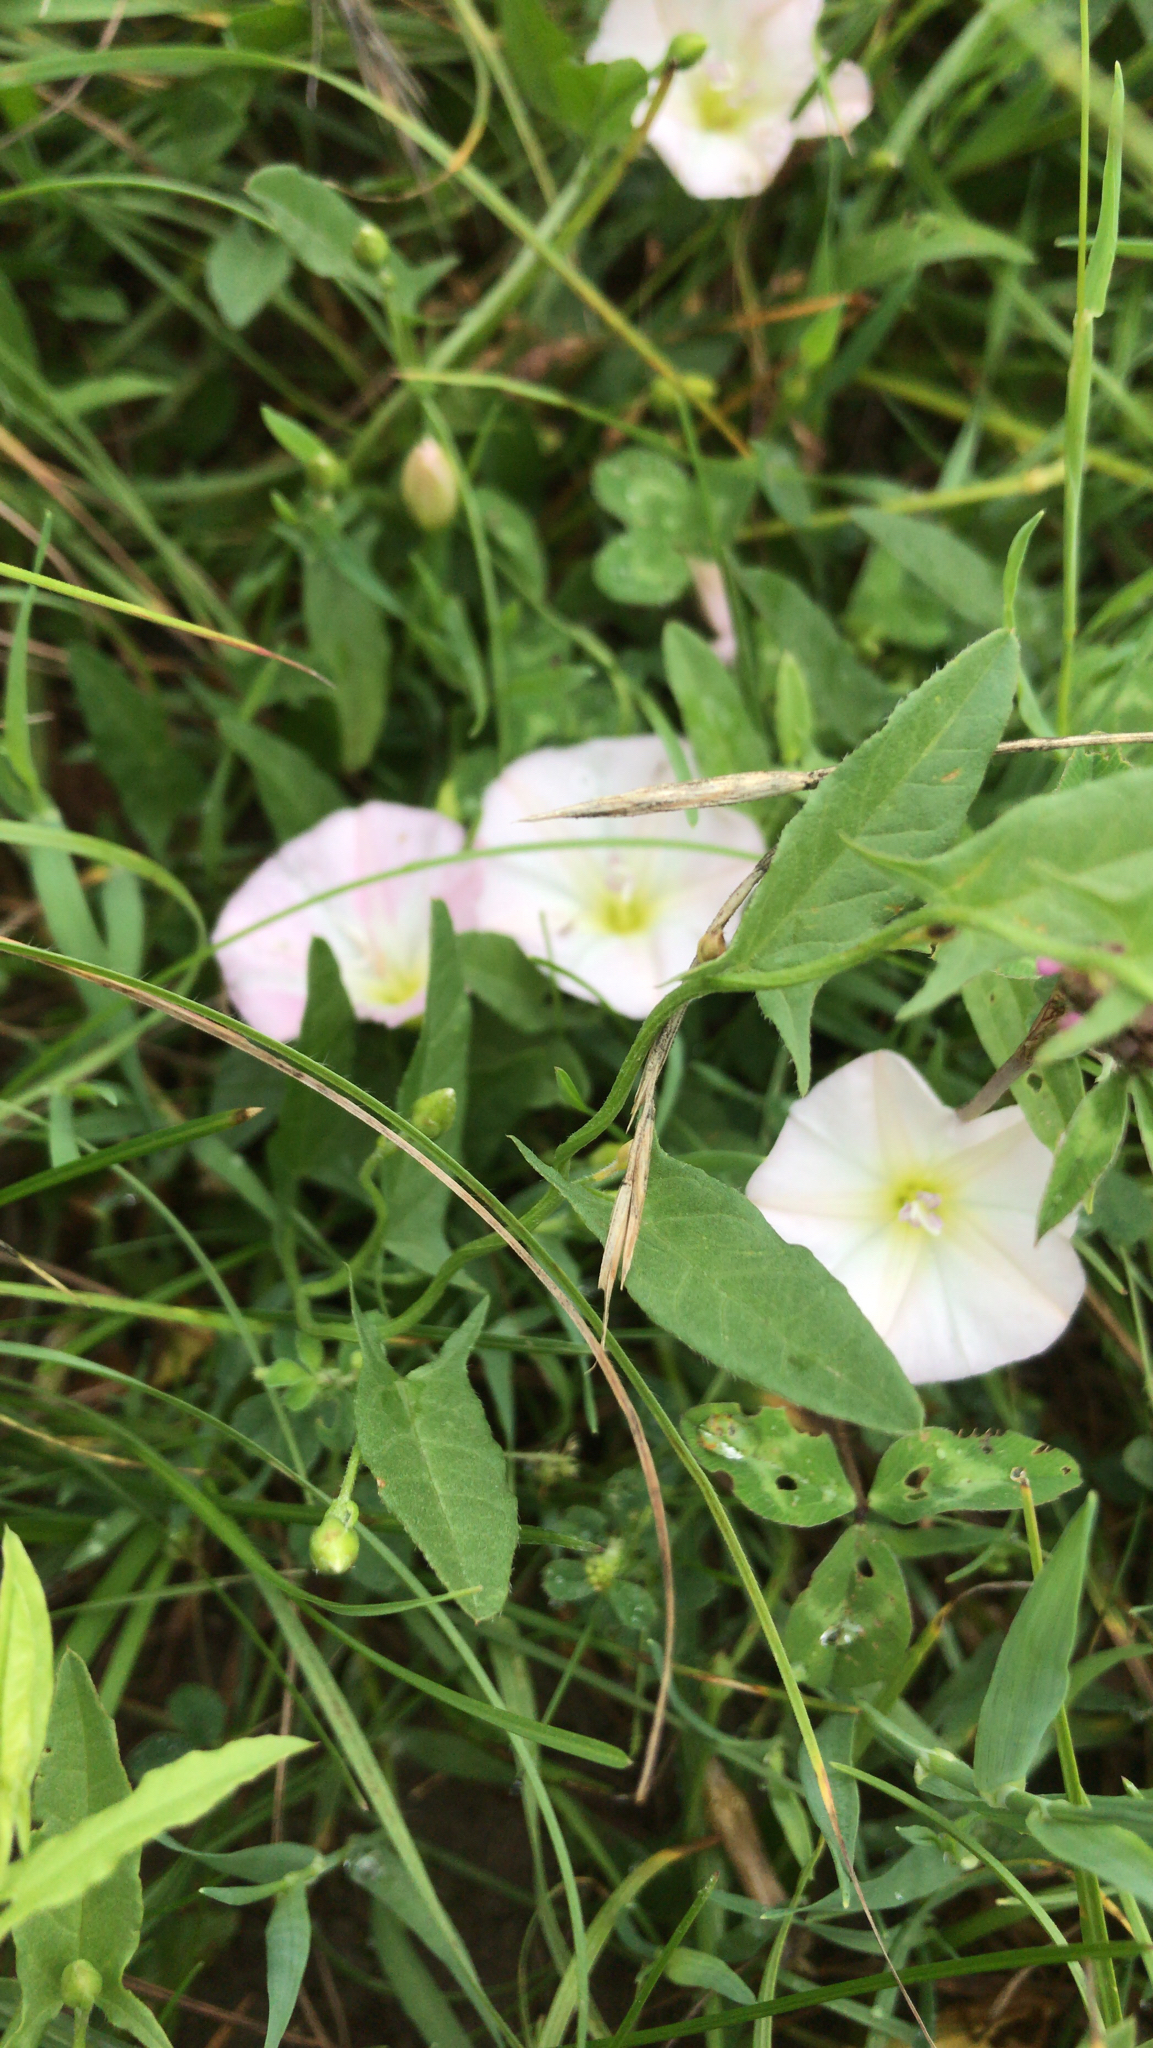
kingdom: Plantae
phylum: Tracheophyta
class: Magnoliopsida
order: Solanales
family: Convolvulaceae
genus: Convolvulus
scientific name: Convolvulus arvensis
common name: Field bindweed
